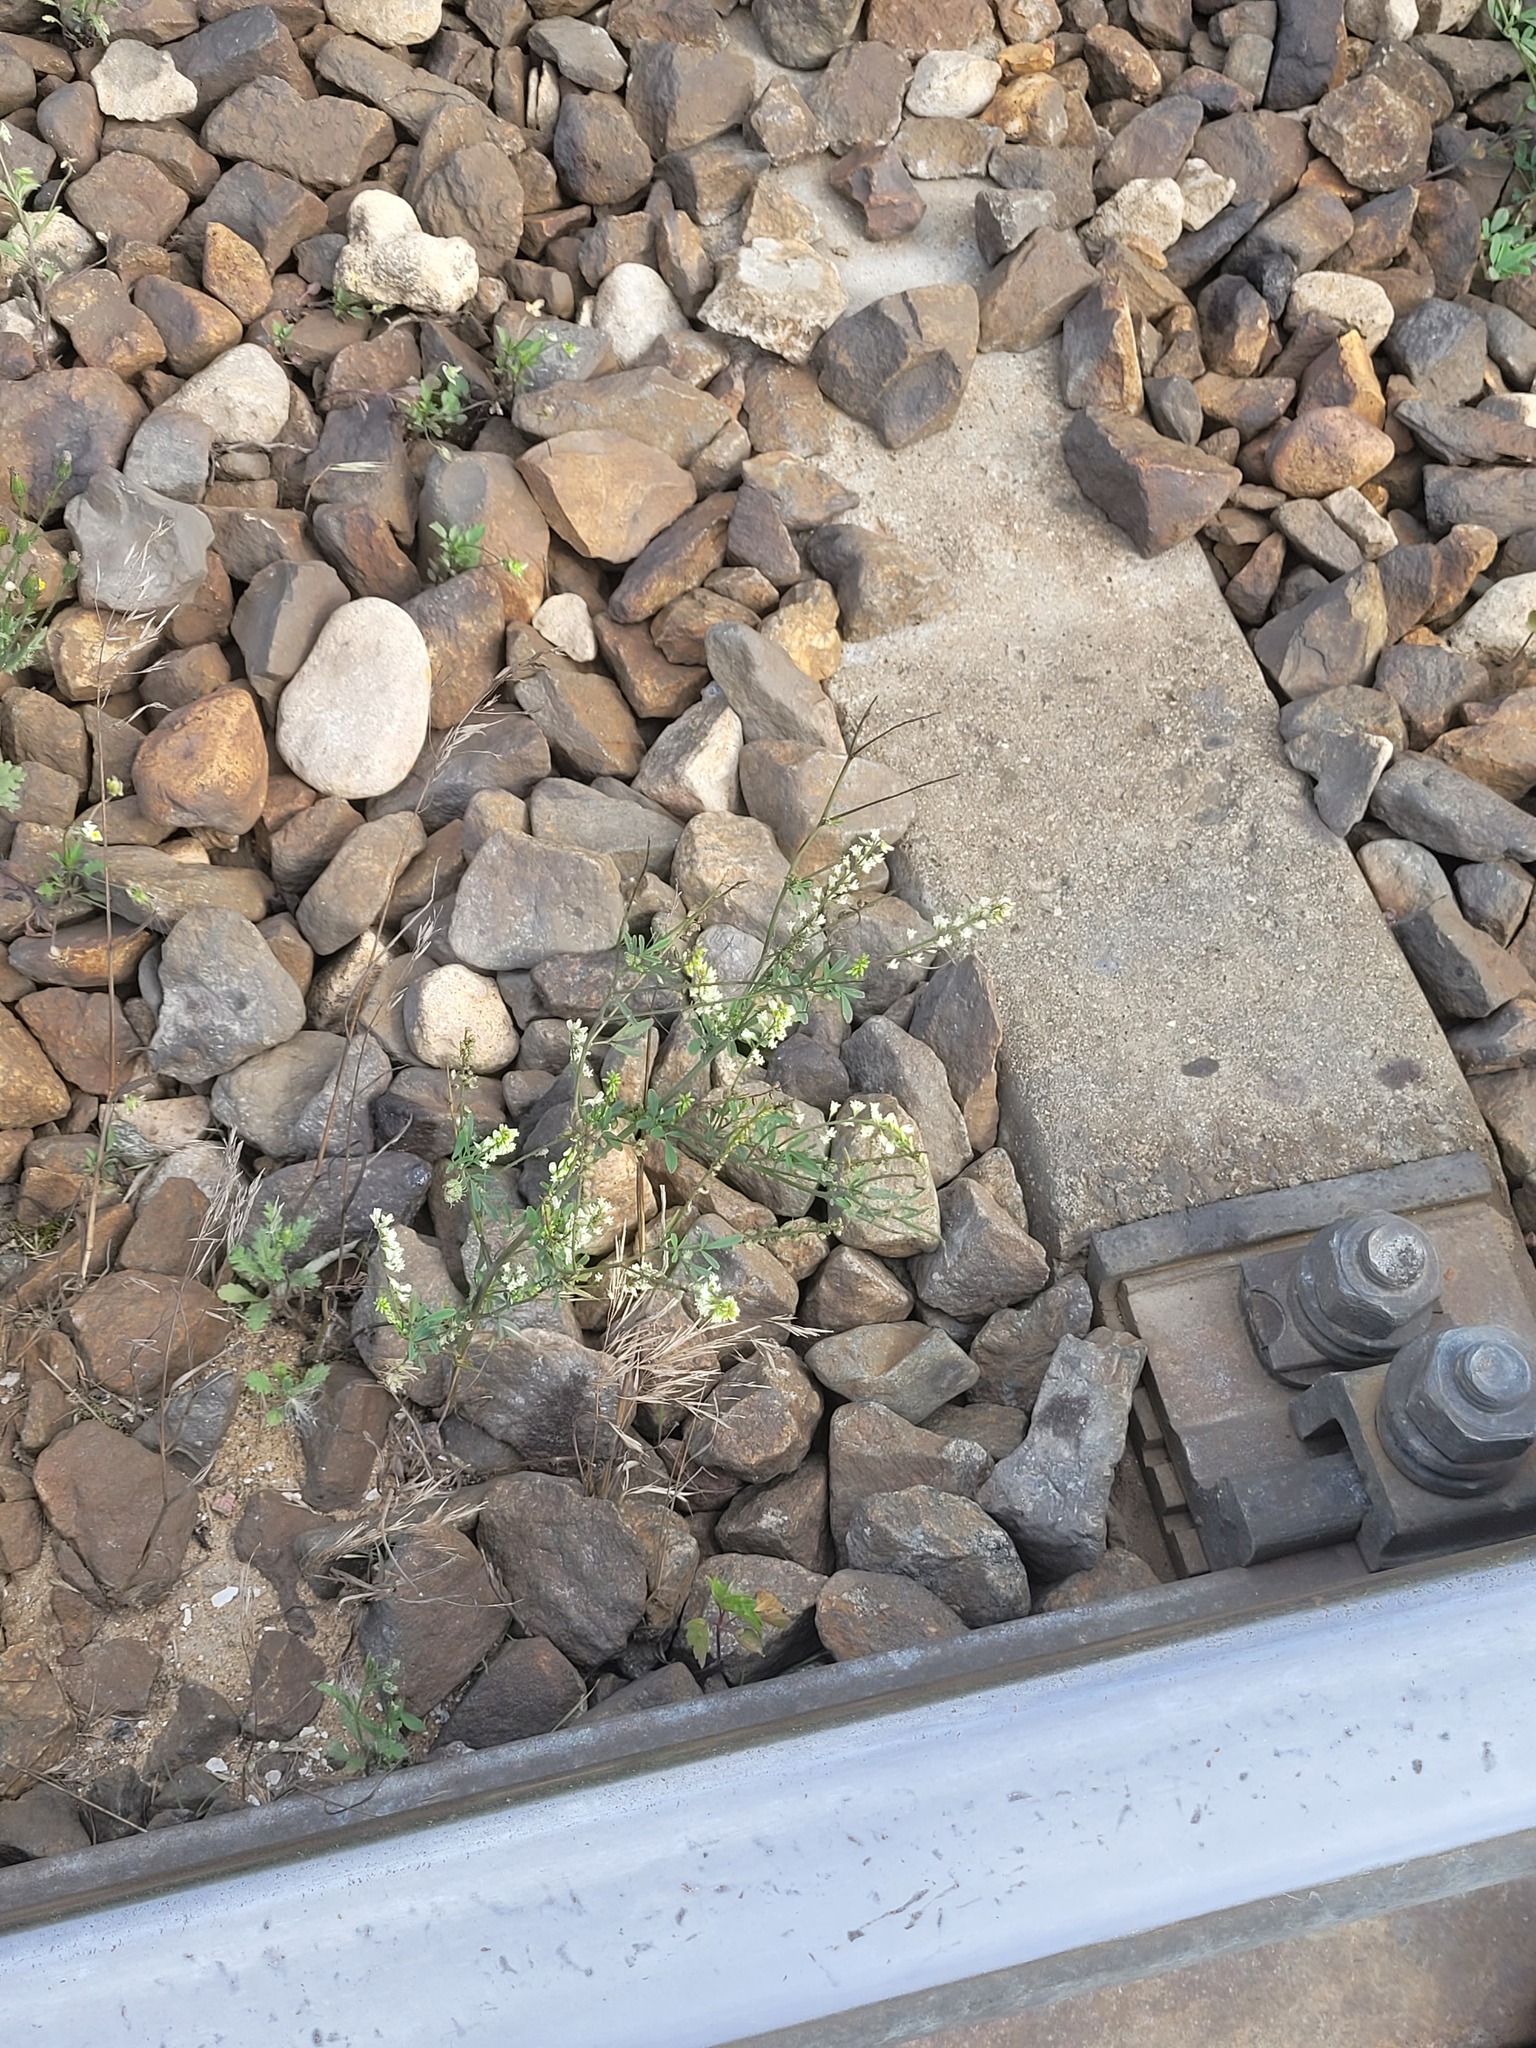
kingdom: Plantae
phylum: Tracheophyta
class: Magnoliopsida
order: Fabales
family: Fabaceae
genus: Melilotus
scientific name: Melilotus albus
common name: White melilot
